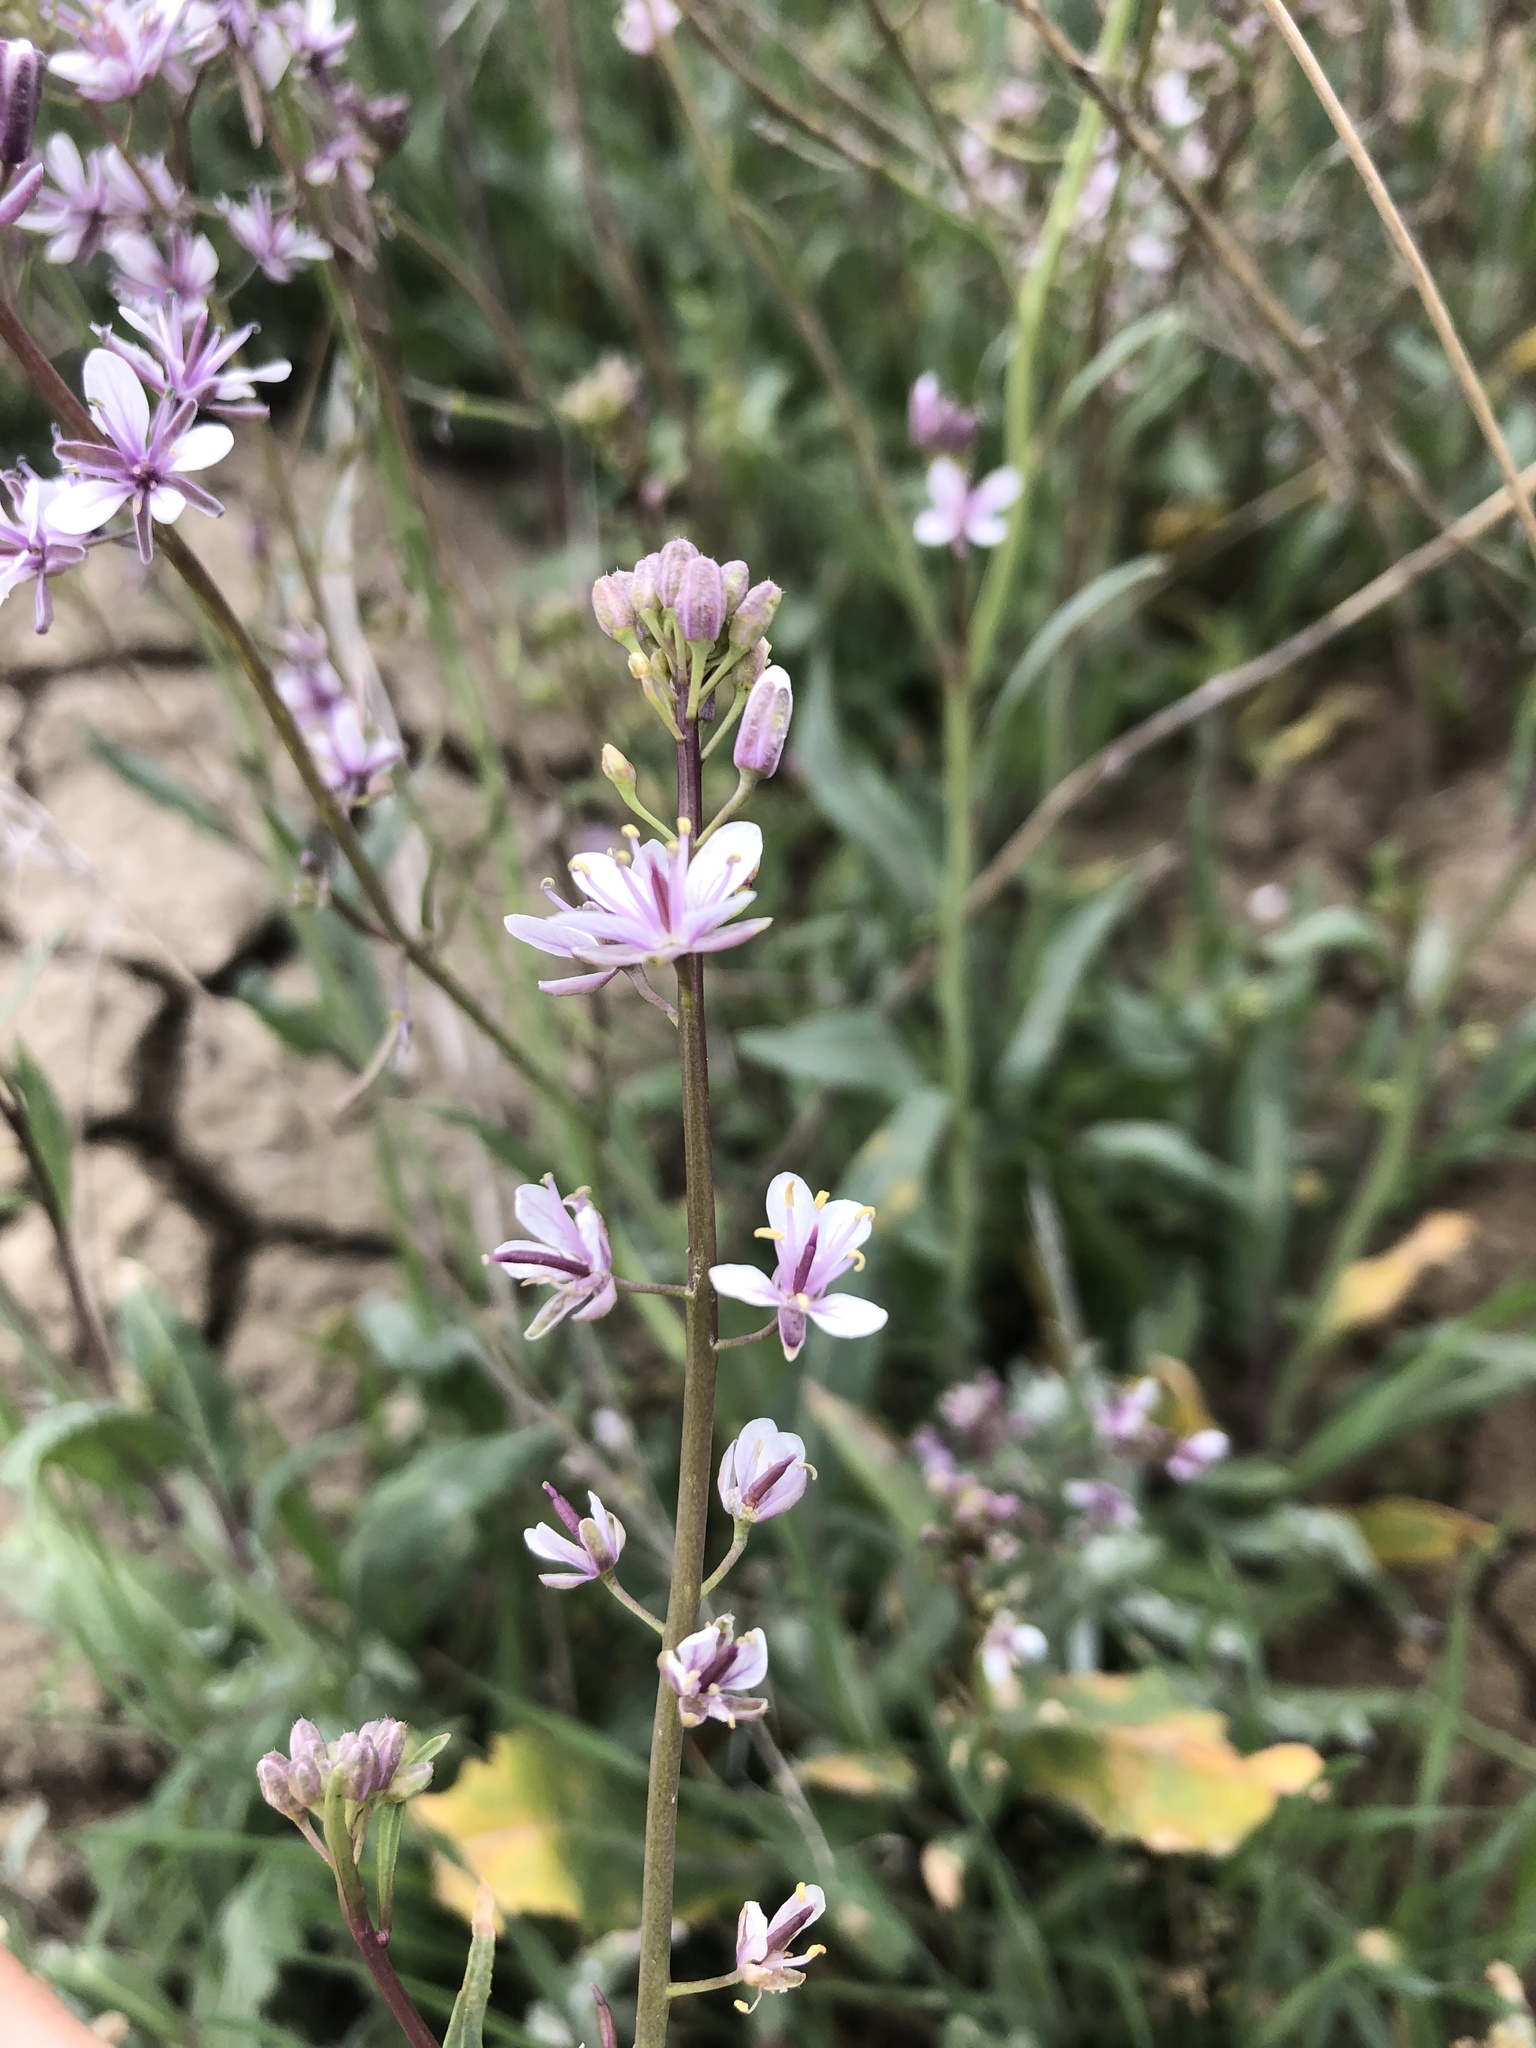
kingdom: Plantae
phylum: Tracheophyta
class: Magnoliopsida
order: Brassicales
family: Brassicaceae
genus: Streptanthus
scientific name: Streptanthus anceps
